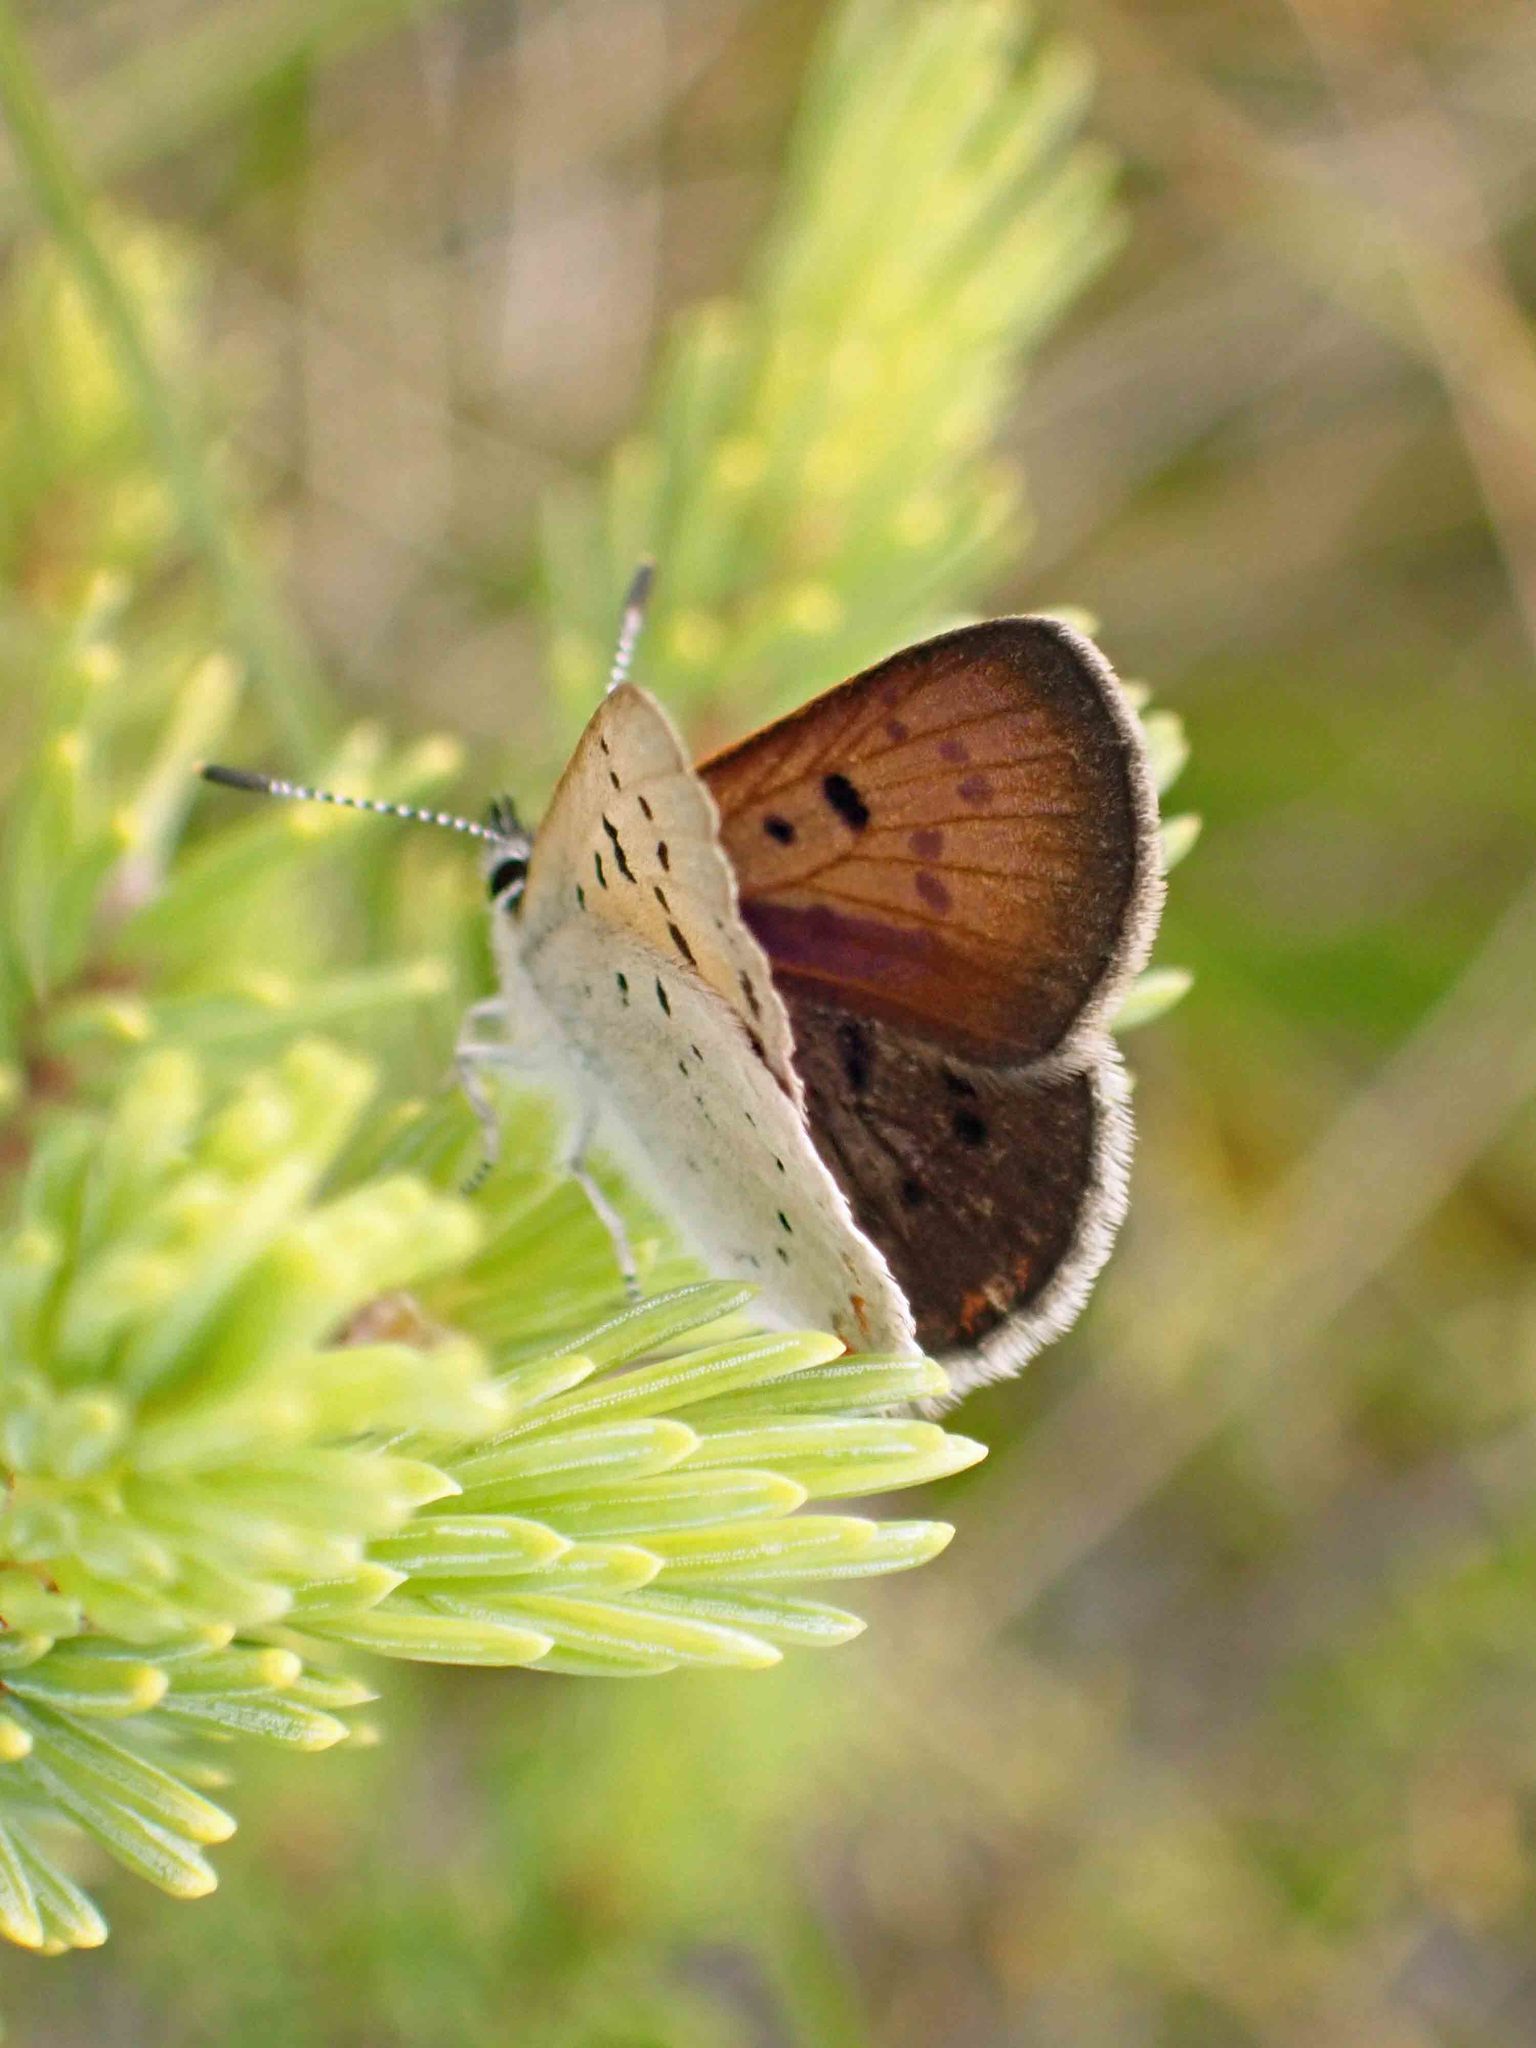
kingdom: Animalia
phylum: Arthropoda
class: Insecta
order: Lepidoptera
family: Lycaenidae
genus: Tharsalea
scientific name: Tharsalea epixanthe
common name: Bog copper
